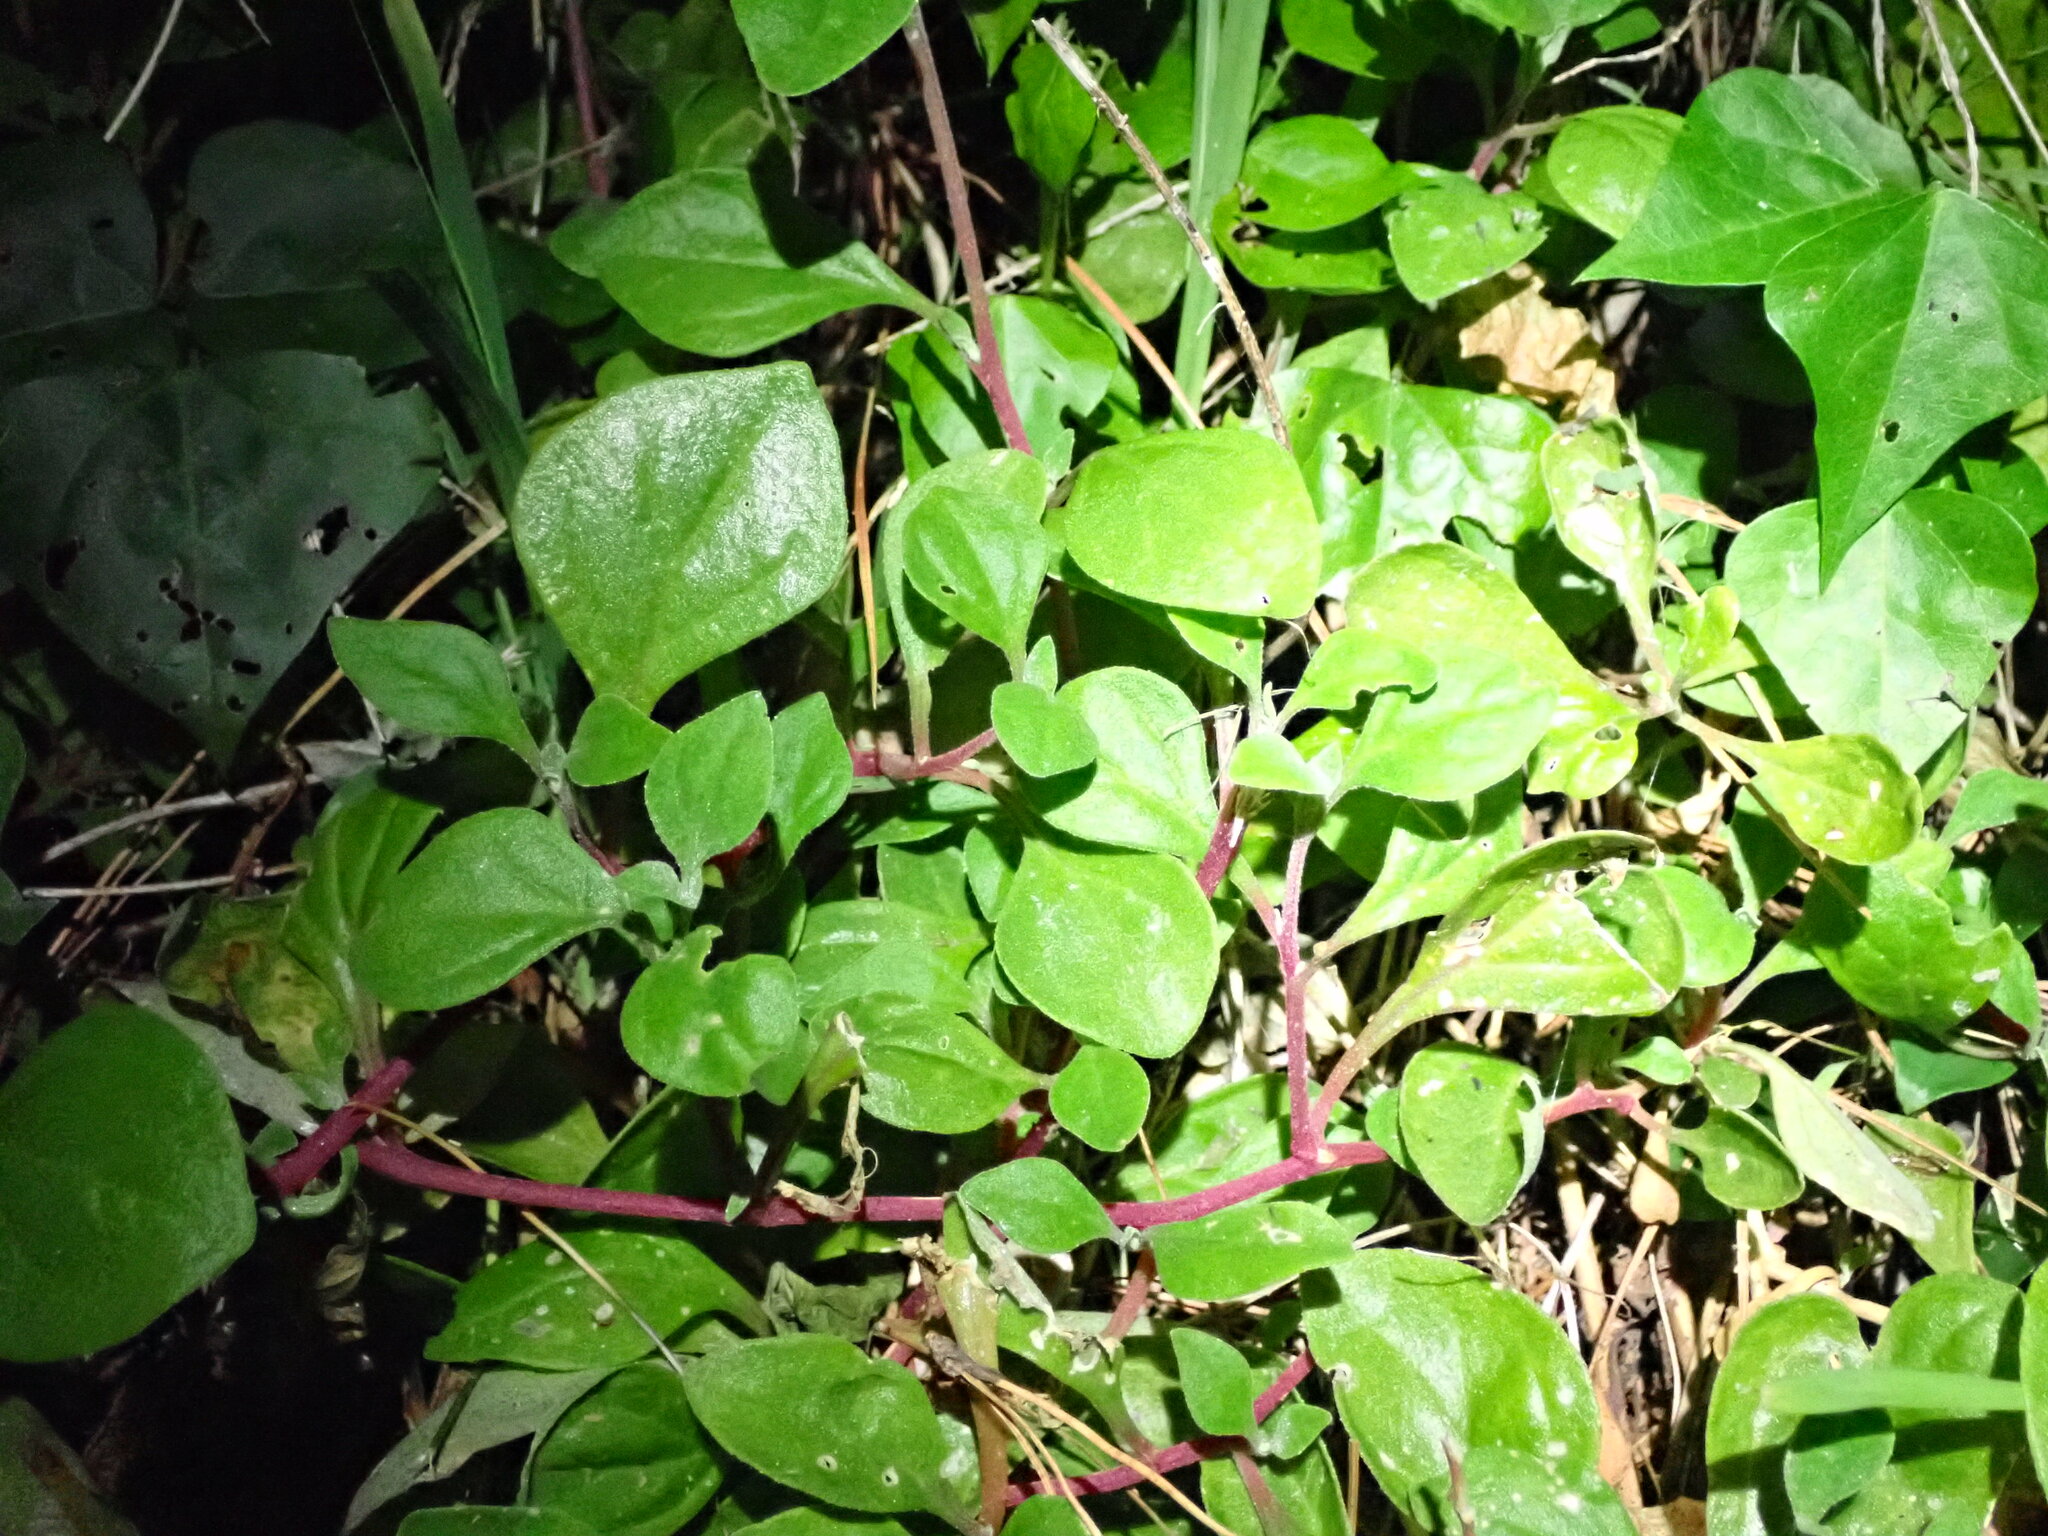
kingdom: Plantae
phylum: Tracheophyta
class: Magnoliopsida
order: Caryophyllales
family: Aizoaceae
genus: Tetragonia
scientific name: Tetragonia implexicoma
